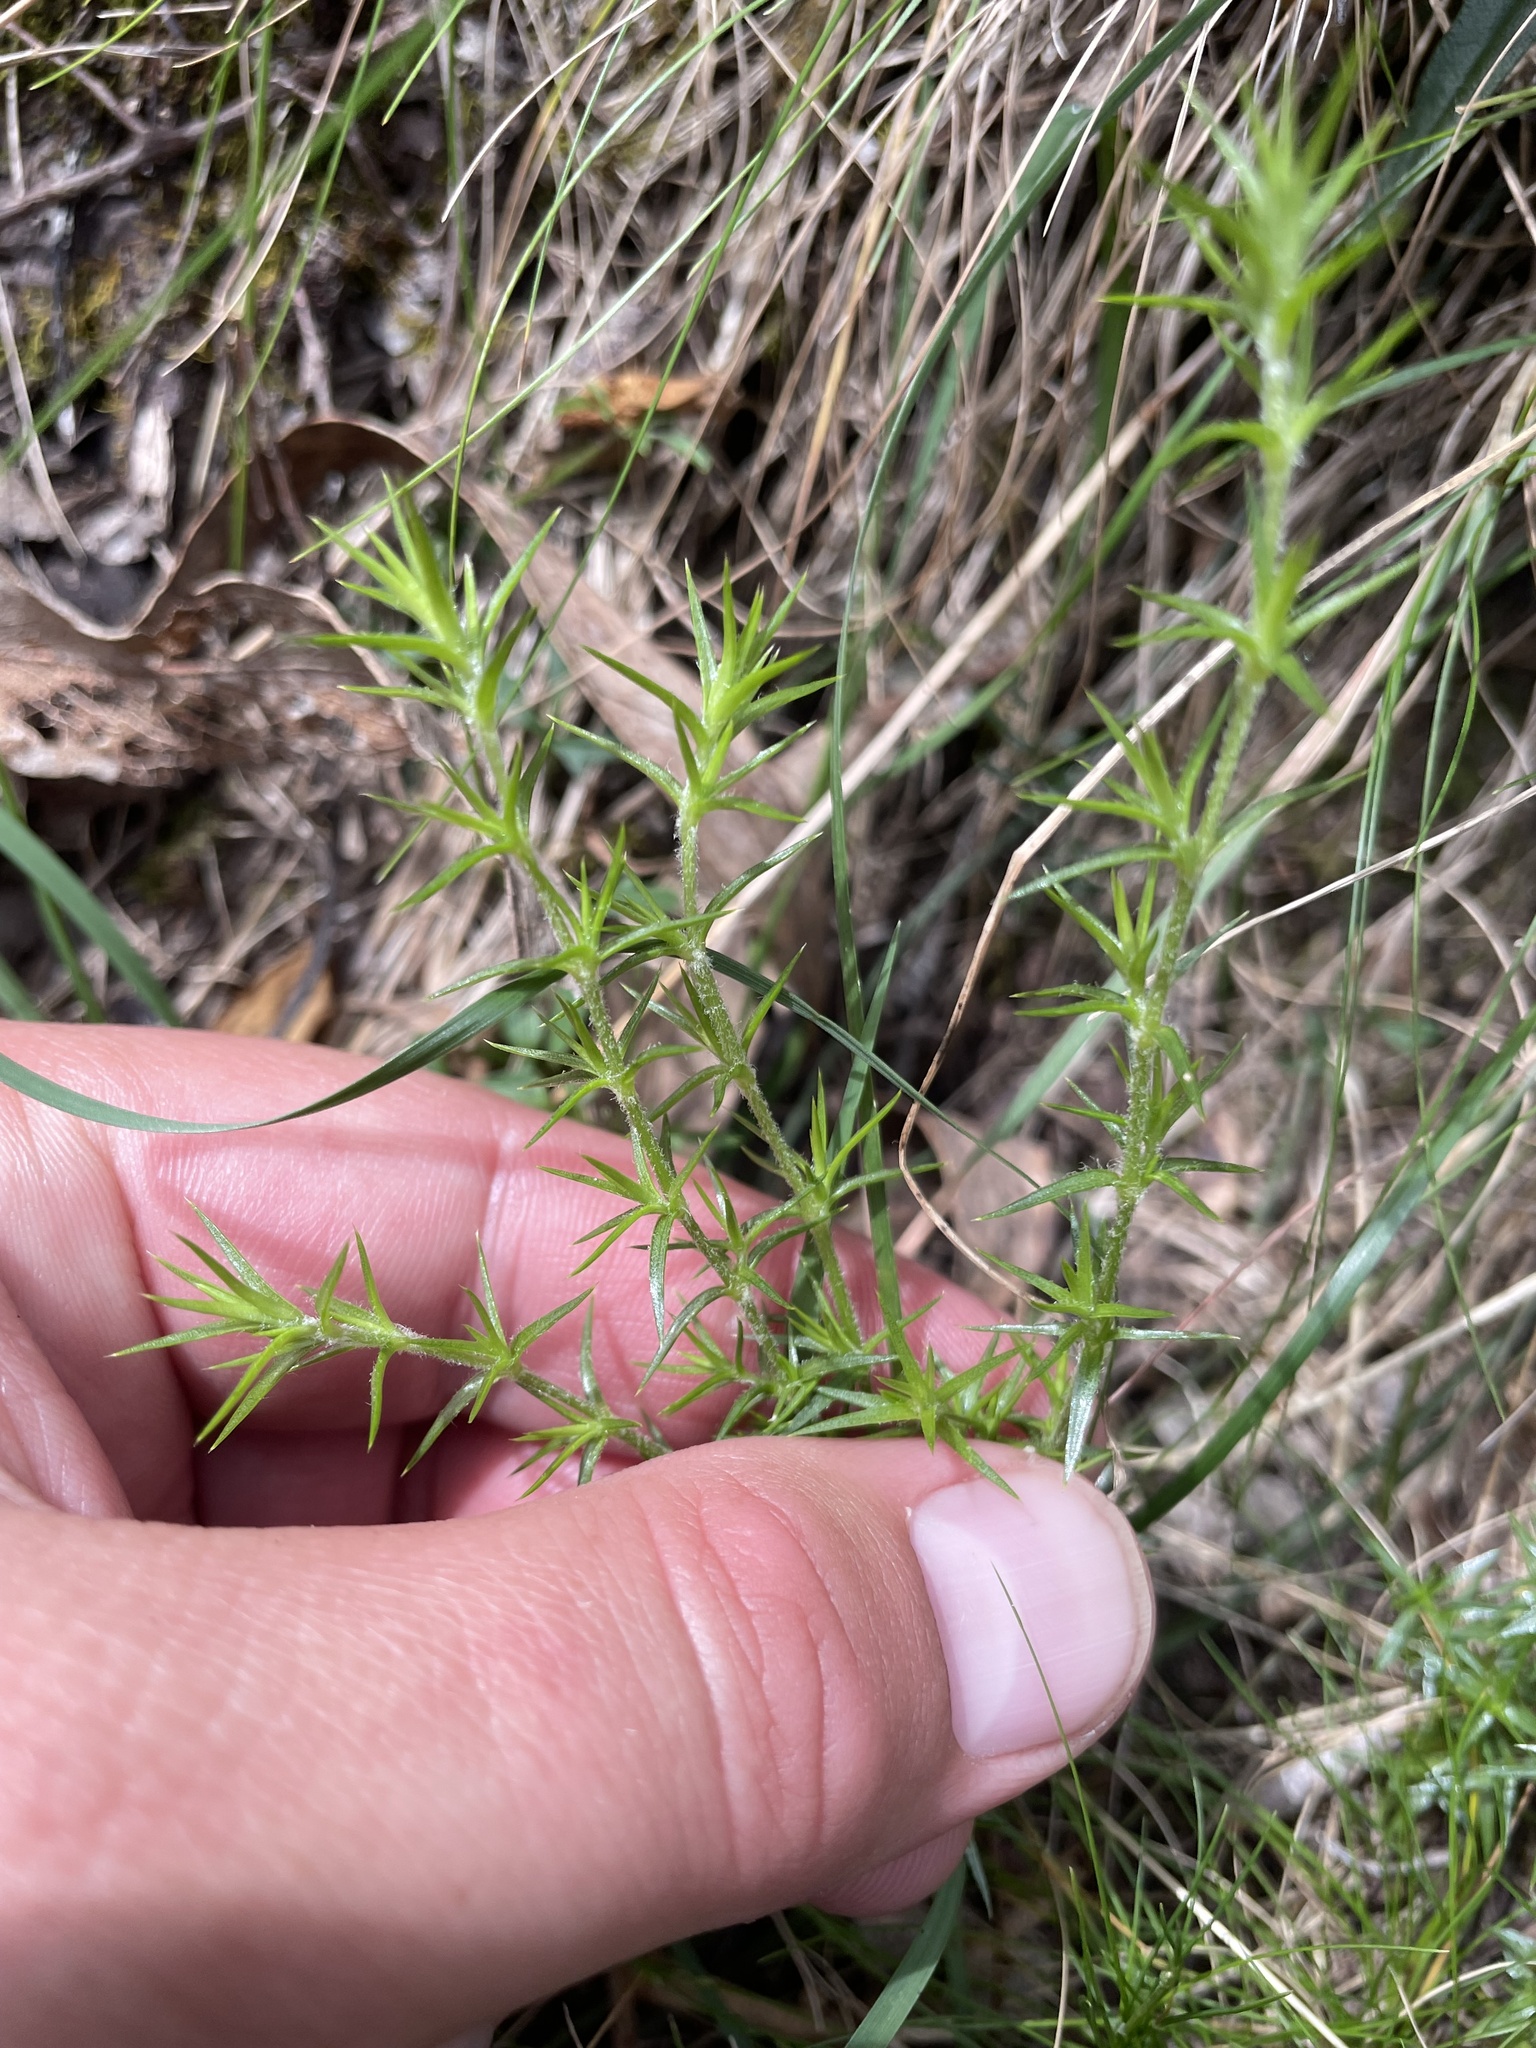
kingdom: Plantae
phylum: Tracheophyta
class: Magnoliopsida
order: Caryophyllales
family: Caryophyllaceae
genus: Stellaria
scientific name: Stellaria pungens
